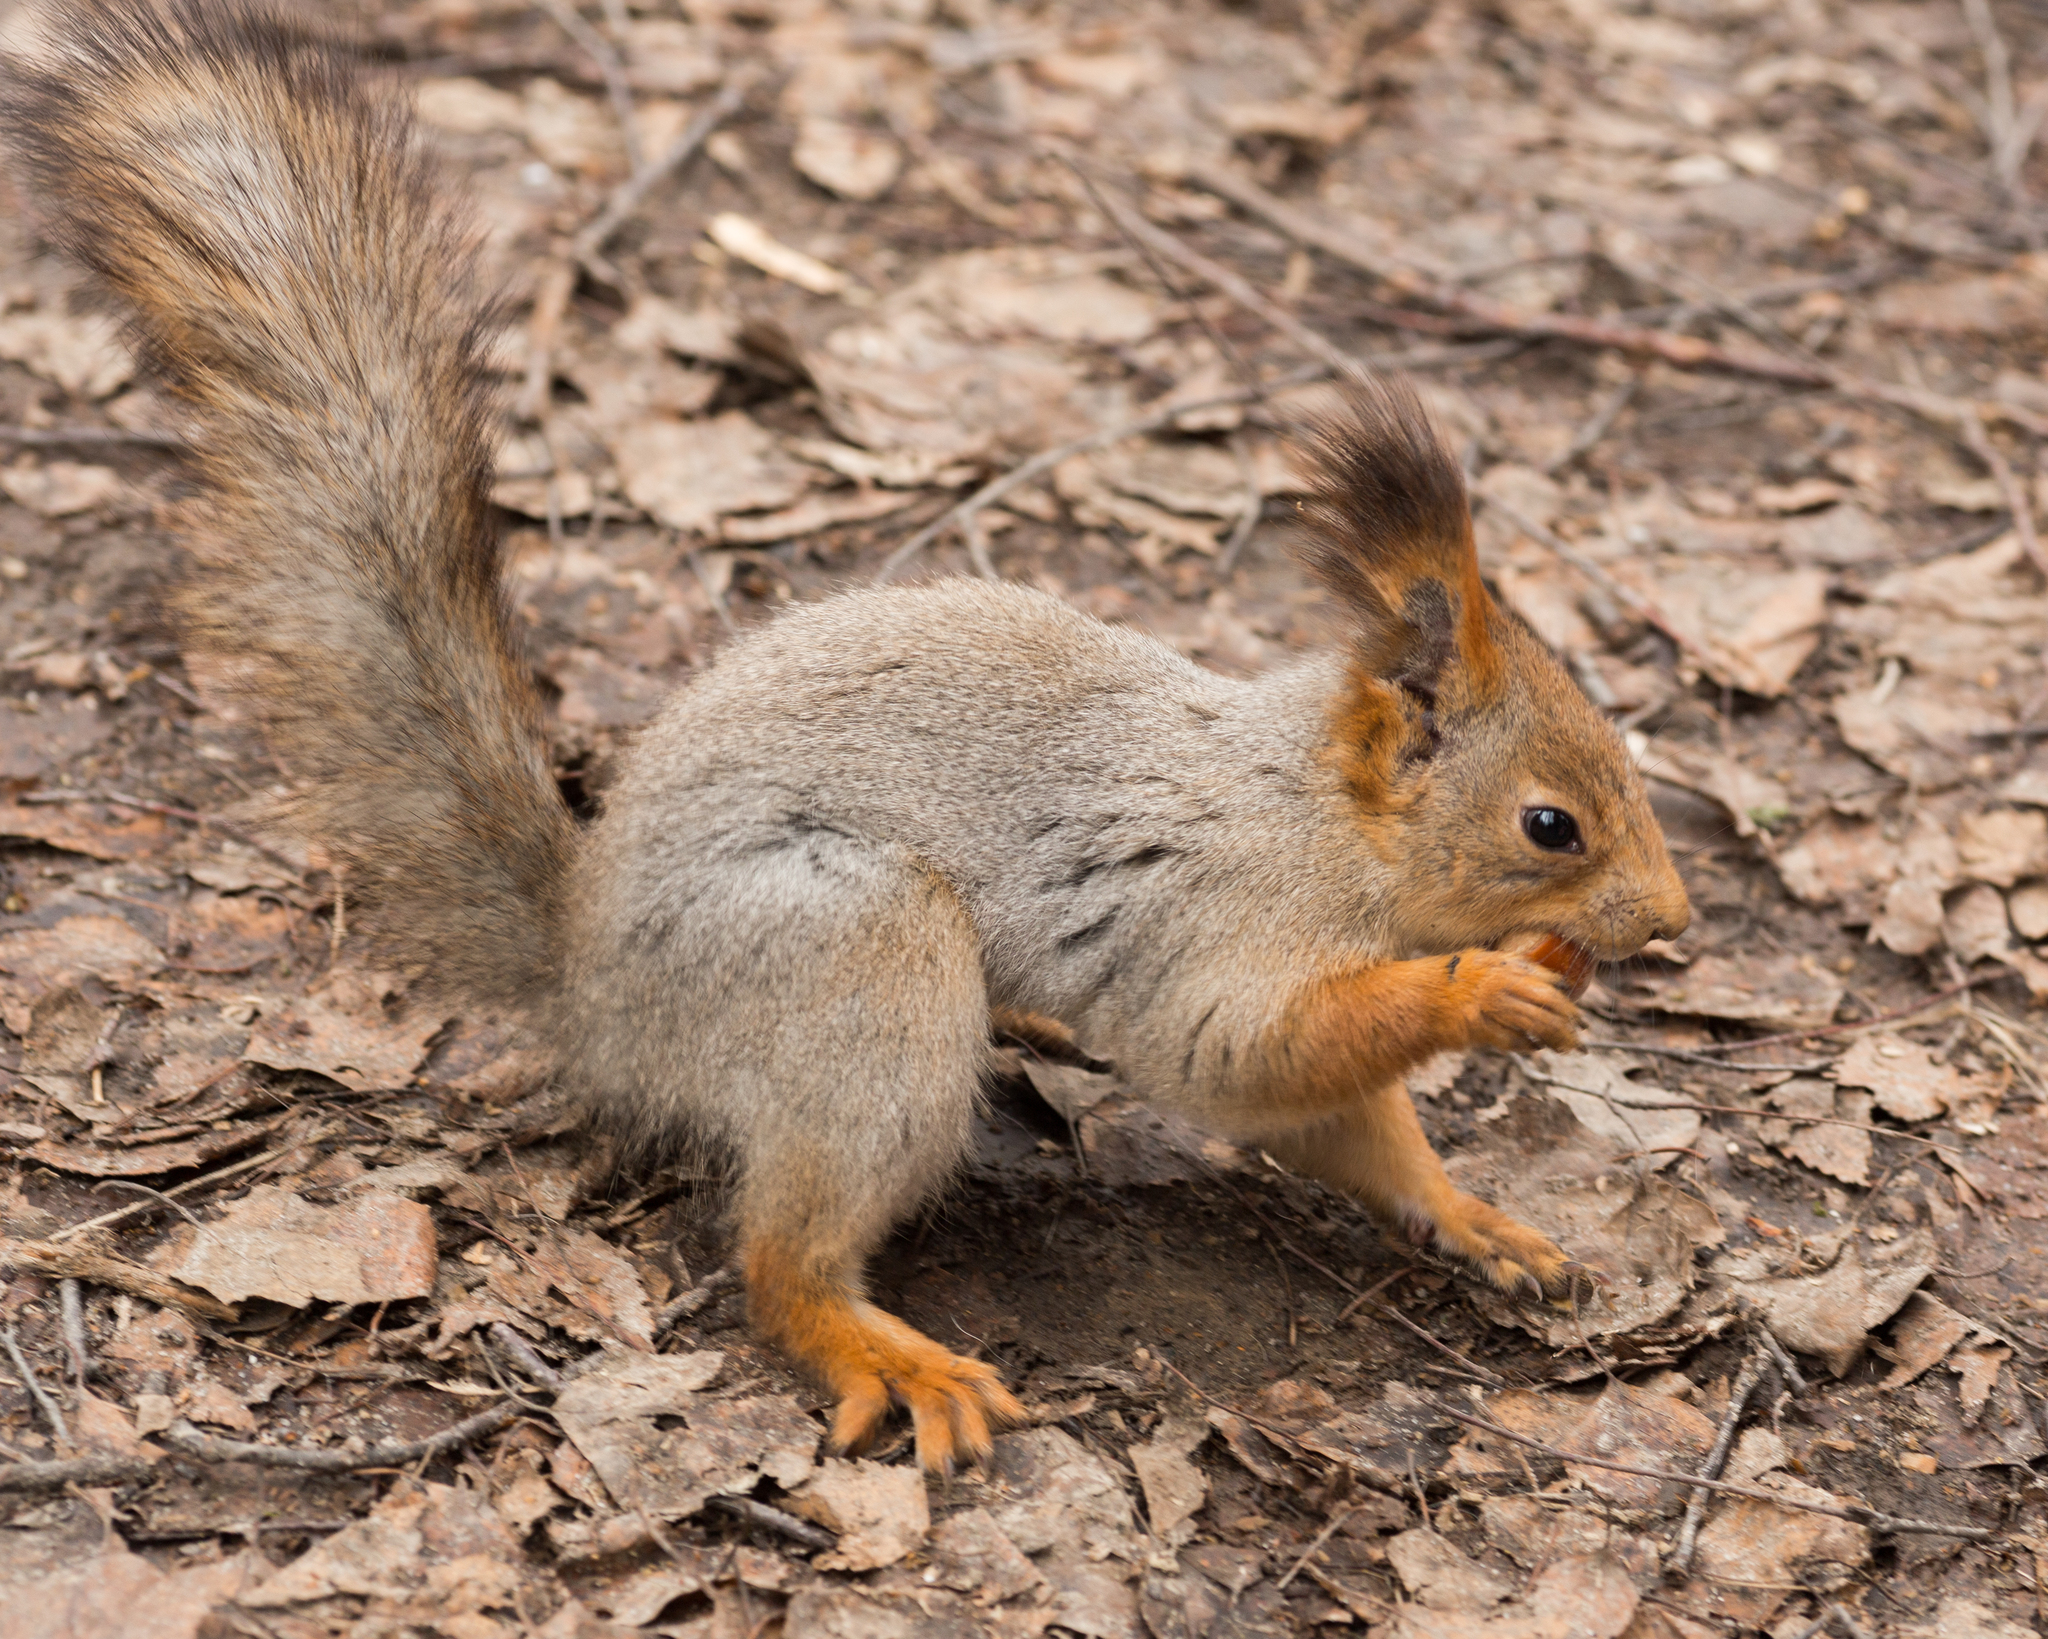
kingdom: Animalia
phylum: Chordata
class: Mammalia
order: Rodentia
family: Sciuridae
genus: Sciurus
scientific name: Sciurus vulgaris
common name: Eurasian red squirrel
